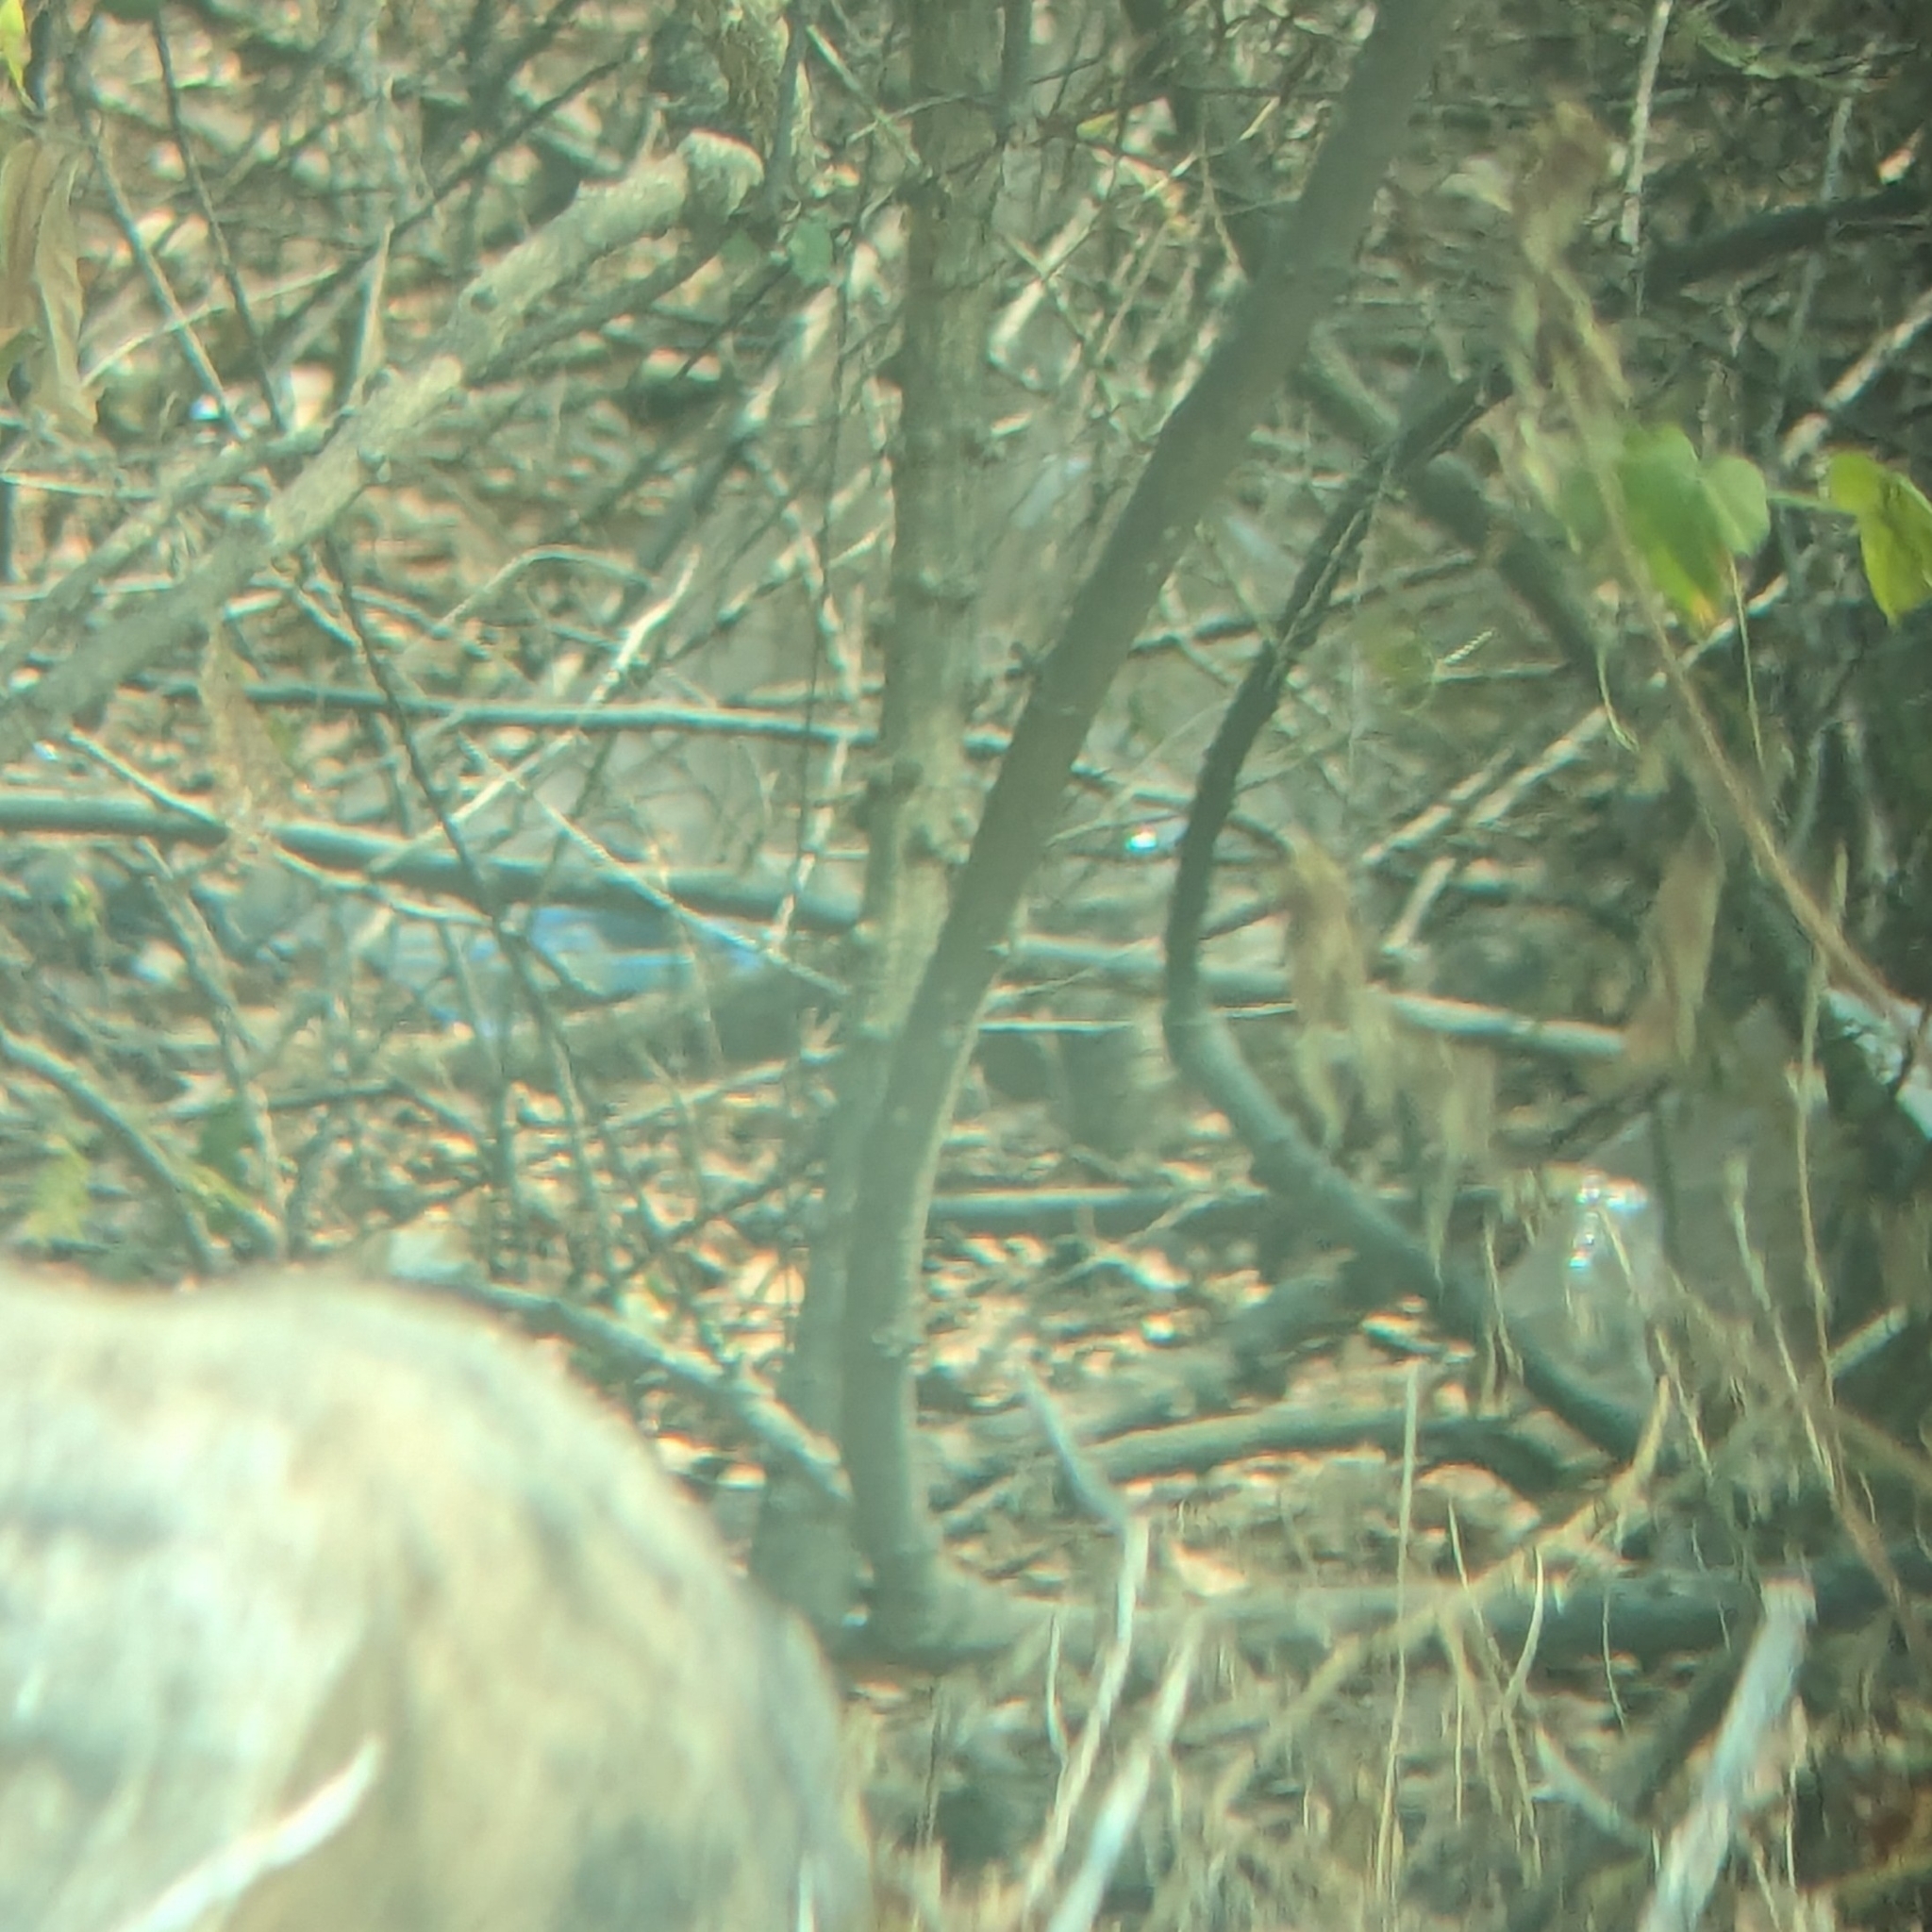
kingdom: Animalia
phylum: Chordata
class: Mammalia
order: Carnivora
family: Herpestidae
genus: Herpestes
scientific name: Herpestes edwardsi
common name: Indian gray mongoose
